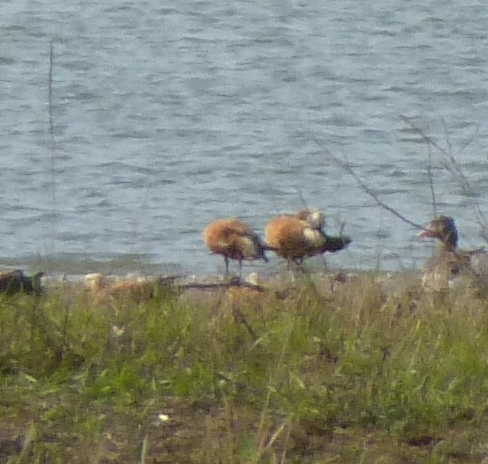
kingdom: Animalia
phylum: Chordata
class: Aves
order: Anseriformes
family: Anatidae
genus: Tadorna
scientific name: Tadorna ferruginea
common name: Ruddy shelduck
